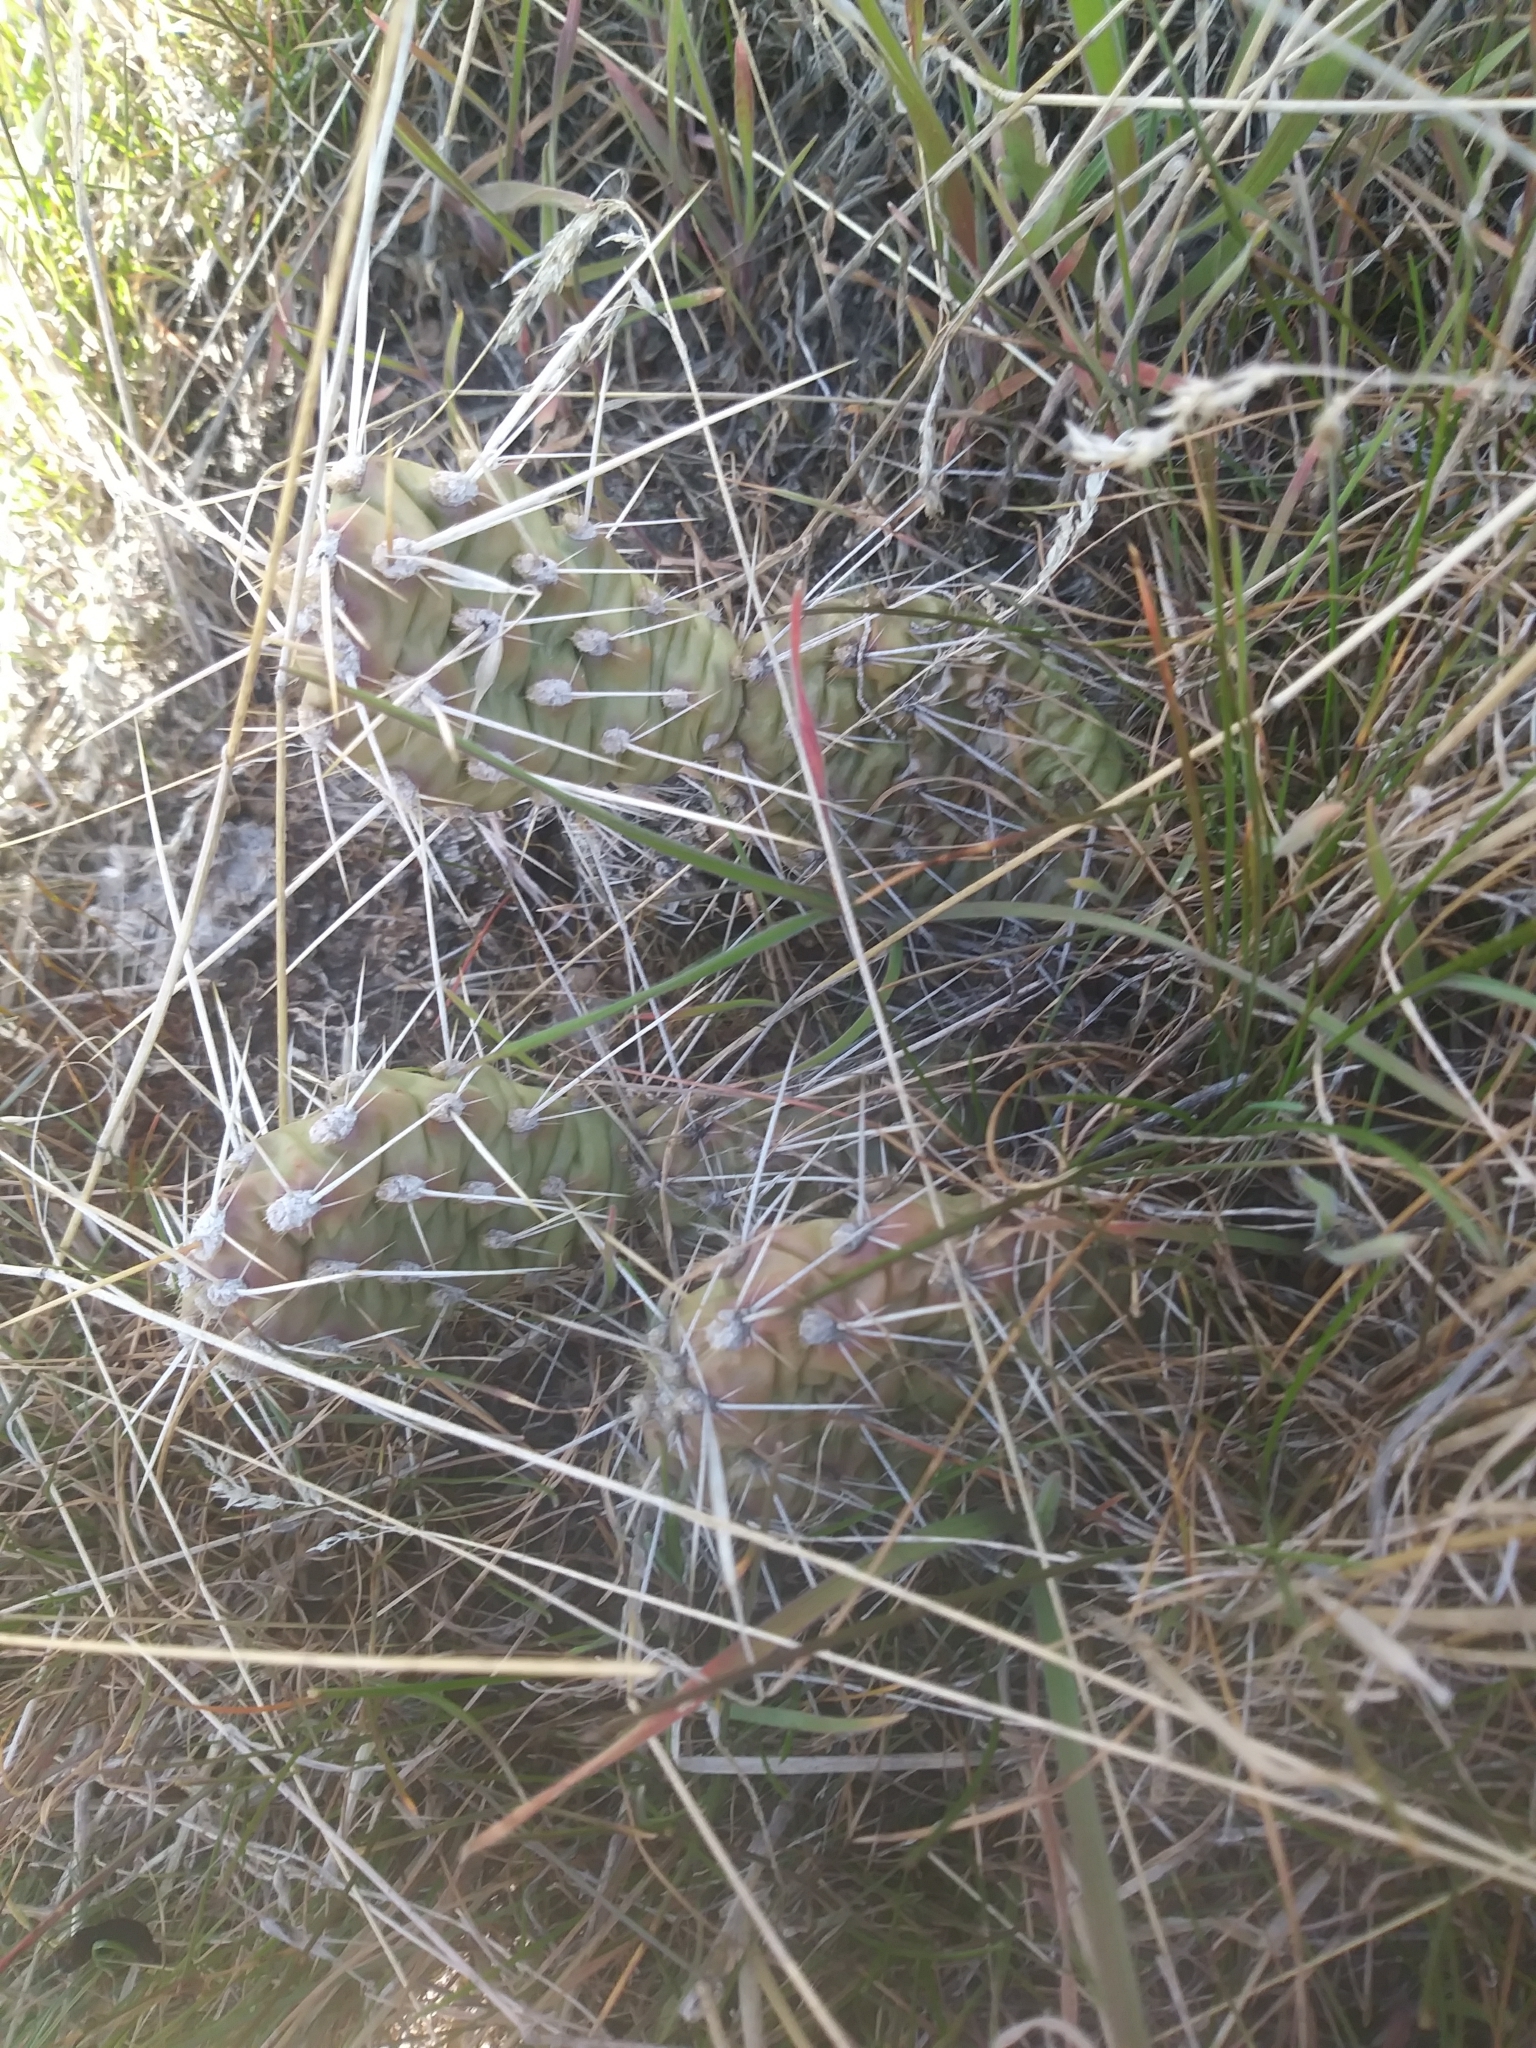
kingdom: Plantae
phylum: Tracheophyta
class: Magnoliopsida
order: Caryophyllales
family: Cactaceae
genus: Opuntia
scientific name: Opuntia columbiana
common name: Columbia prickly-pear
